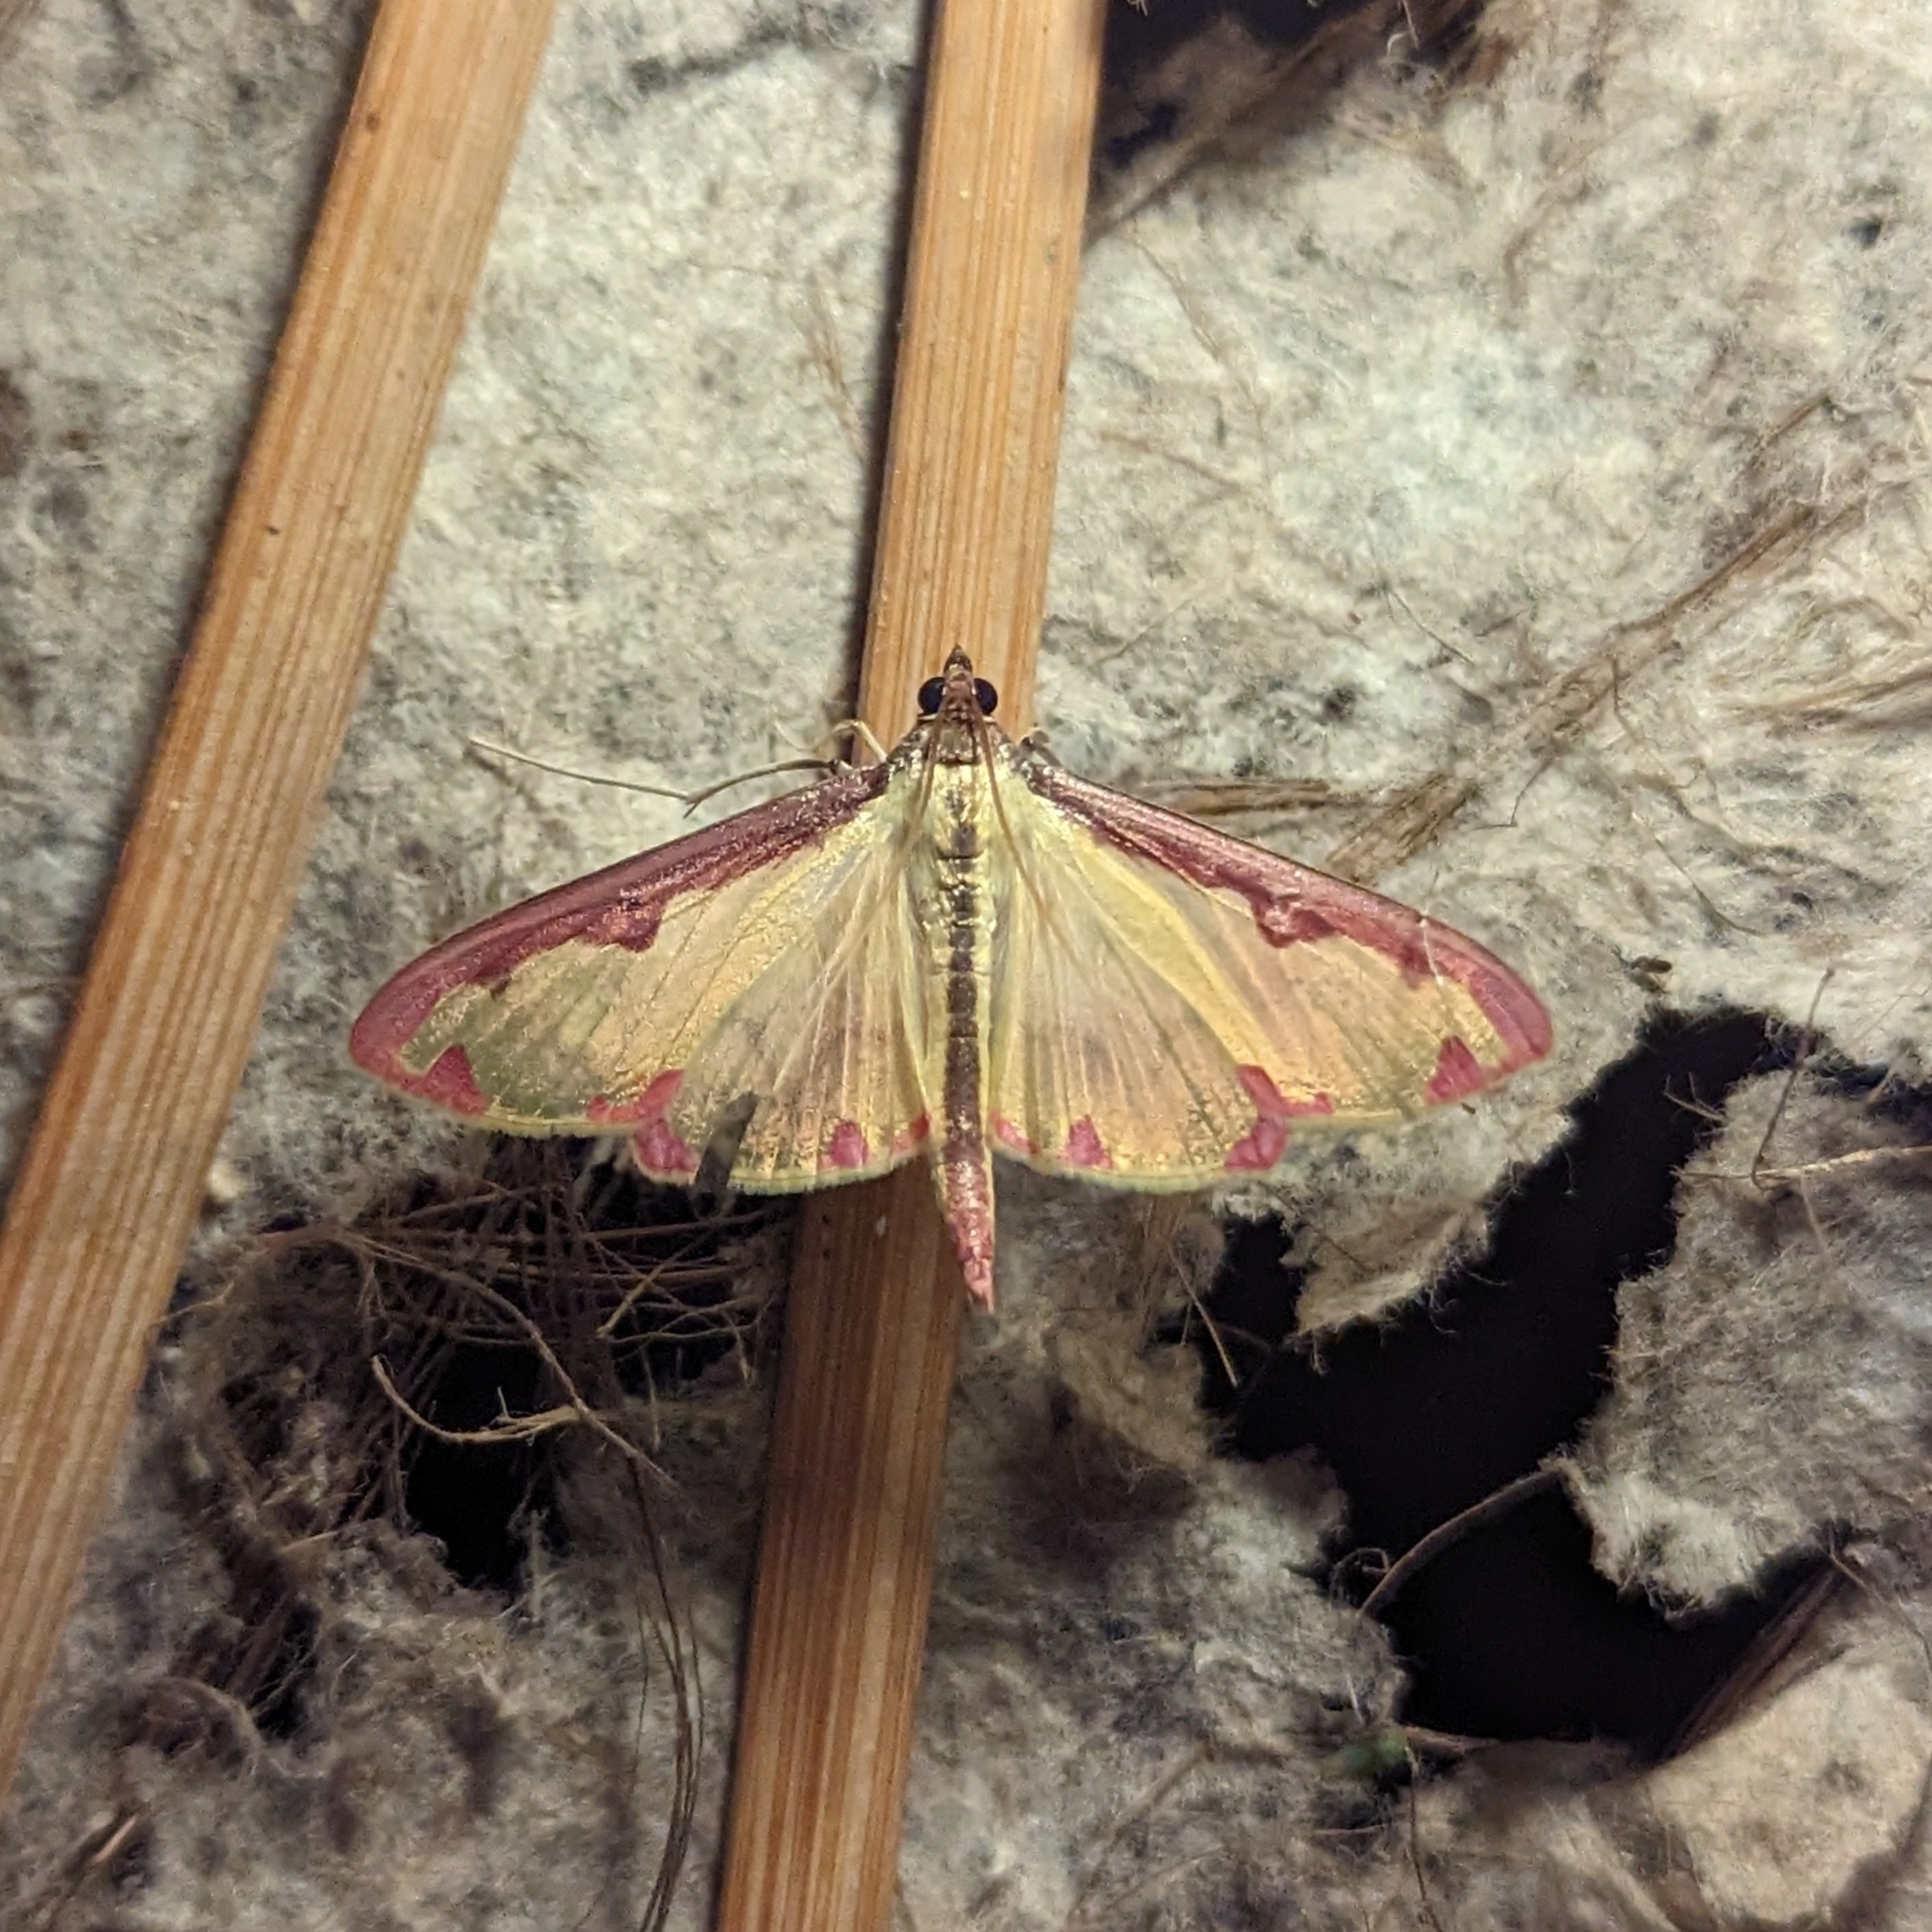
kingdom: Animalia
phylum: Arthropoda
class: Insecta
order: Lepidoptera
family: Crambidae
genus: Cadarena
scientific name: Cadarena pudoraria
